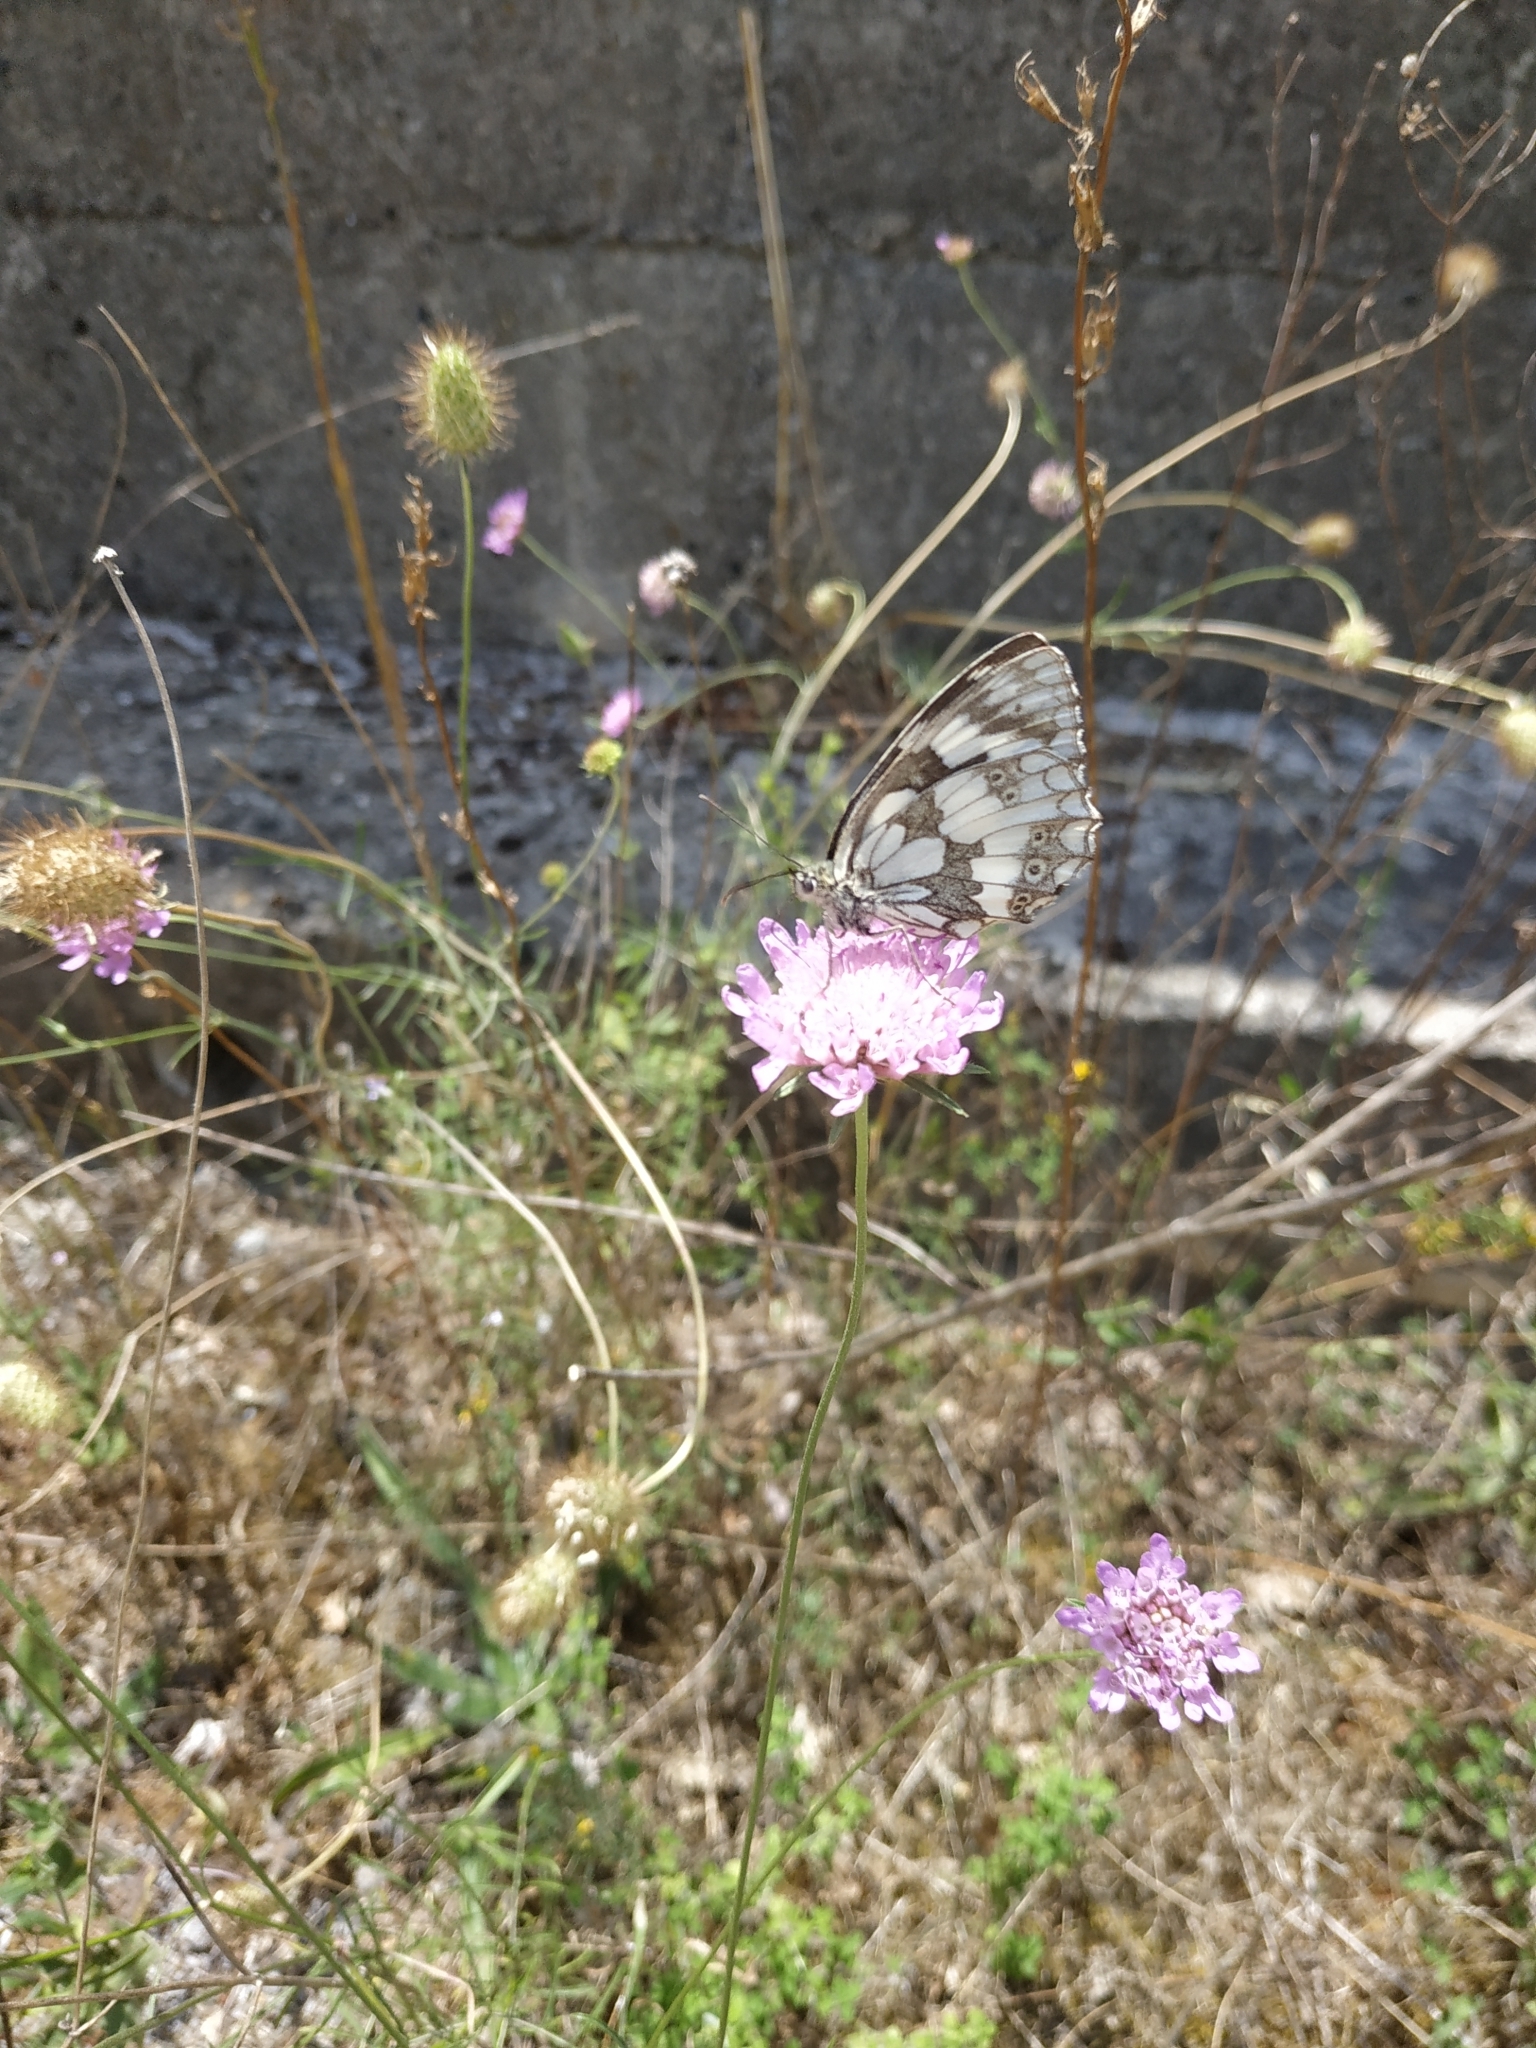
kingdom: Animalia
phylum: Arthropoda
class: Insecta
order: Lepidoptera
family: Nymphalidae
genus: Melanargia
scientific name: Melanargia galathea
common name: Marbled white
